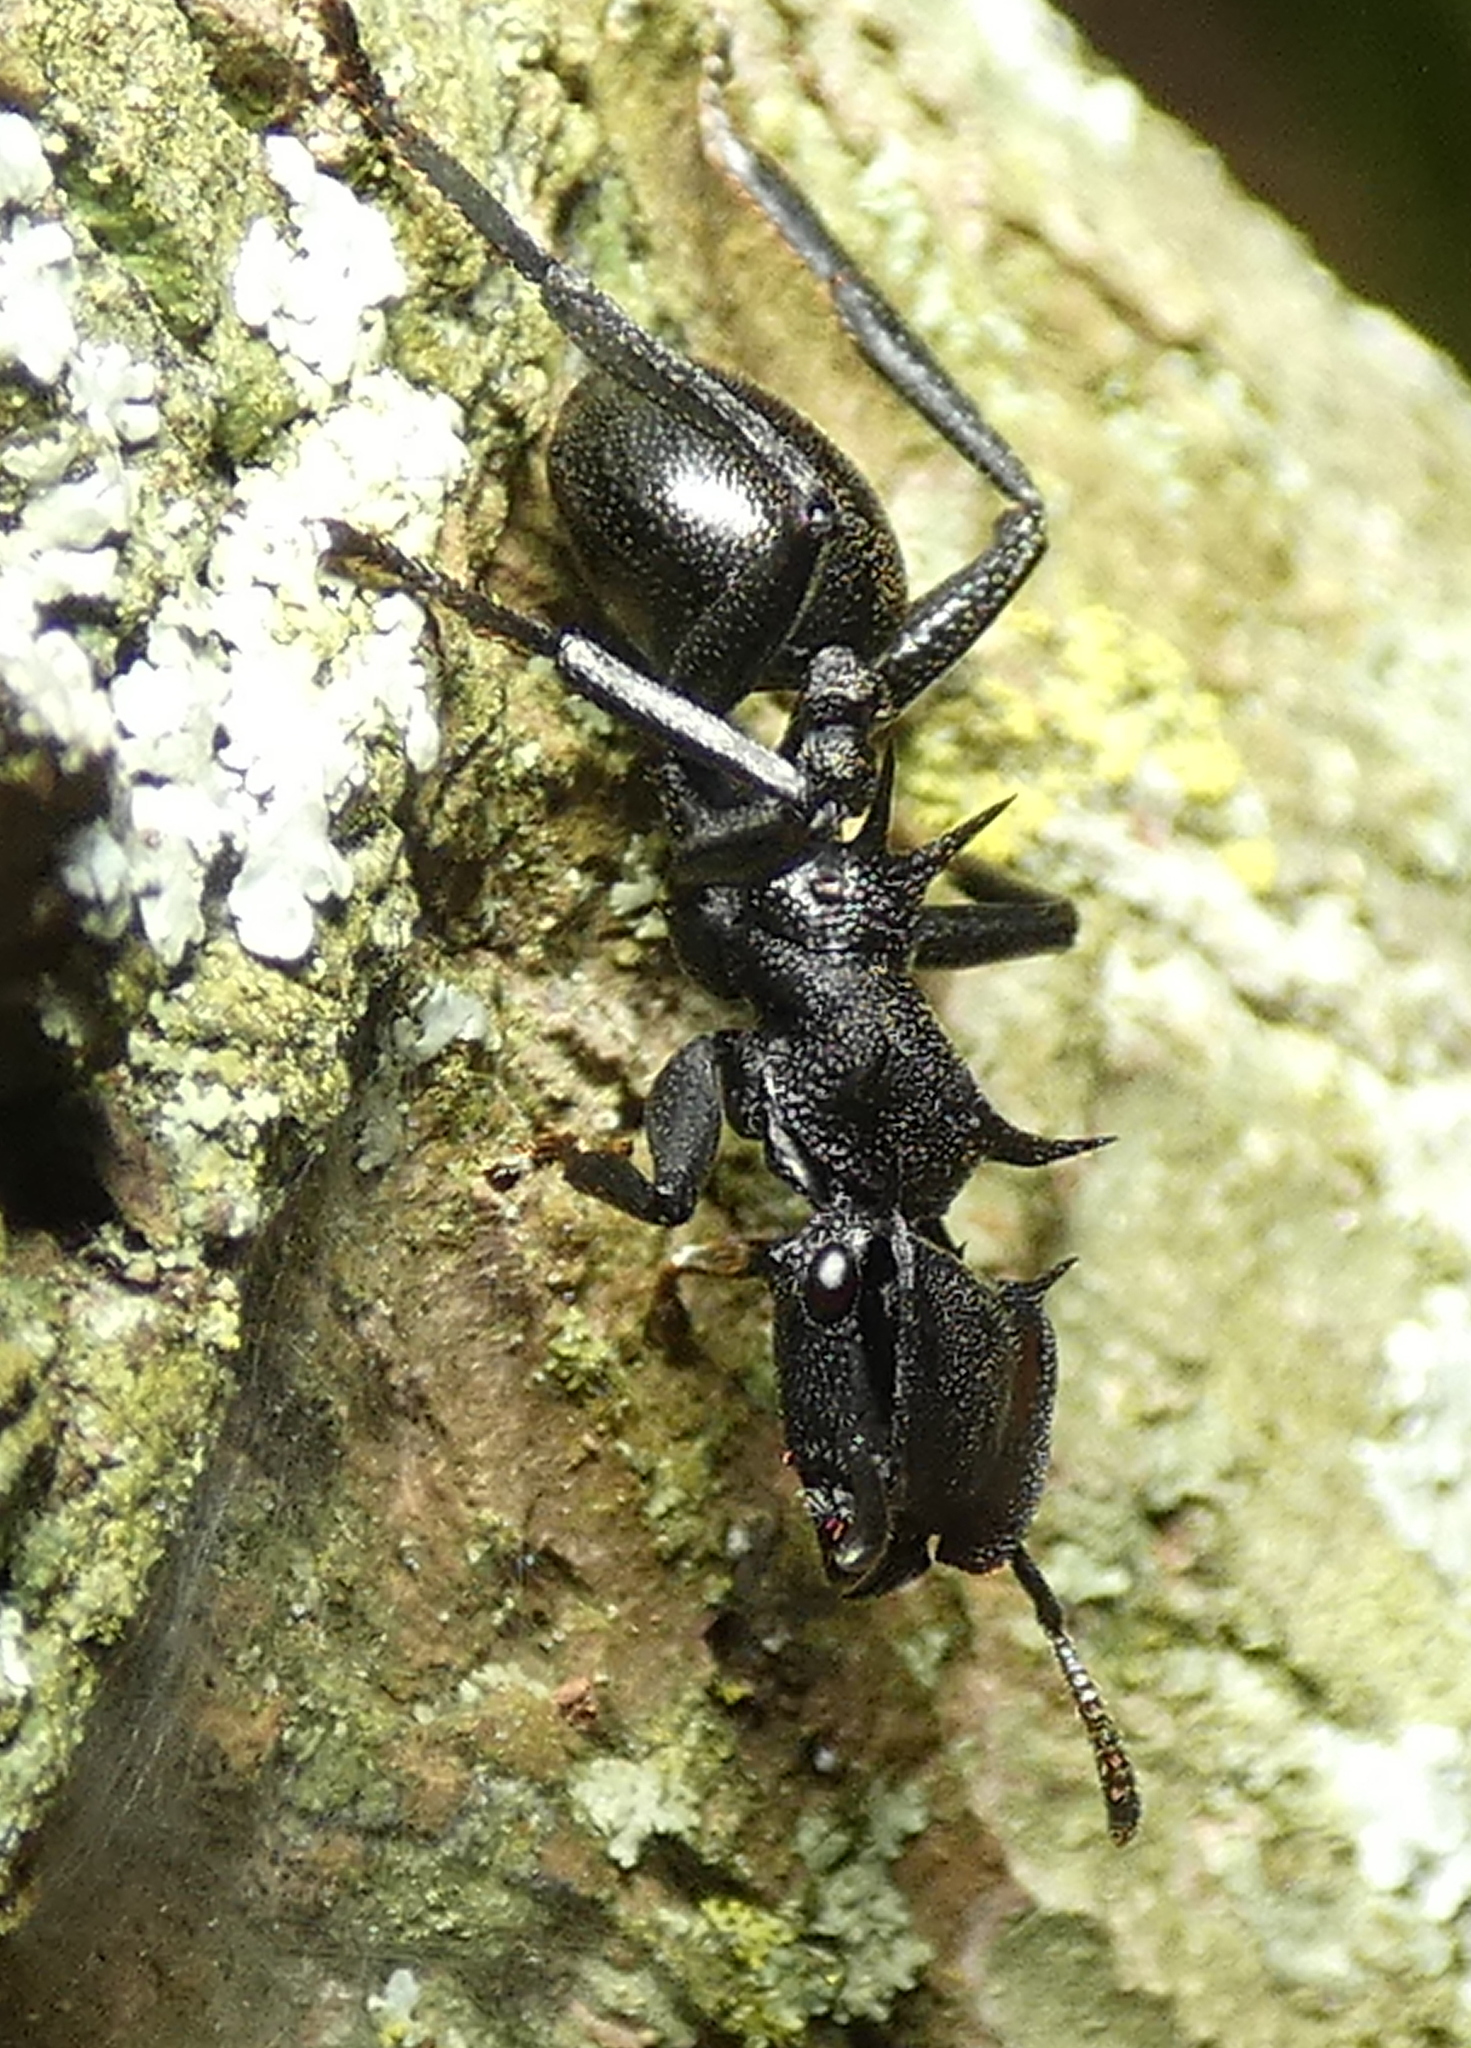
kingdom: Animalia
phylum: Arthropoda
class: Insecta
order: Hymenoptera
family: Formicidae
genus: Cephalotes
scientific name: Cephalotes atratus
